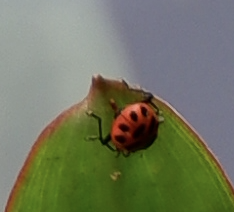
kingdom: Animalia
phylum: Arthropoda
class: Insecta
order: Coleoptera
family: Coccinellidae
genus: Coleomegilla
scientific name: Coleomegilla maculata
